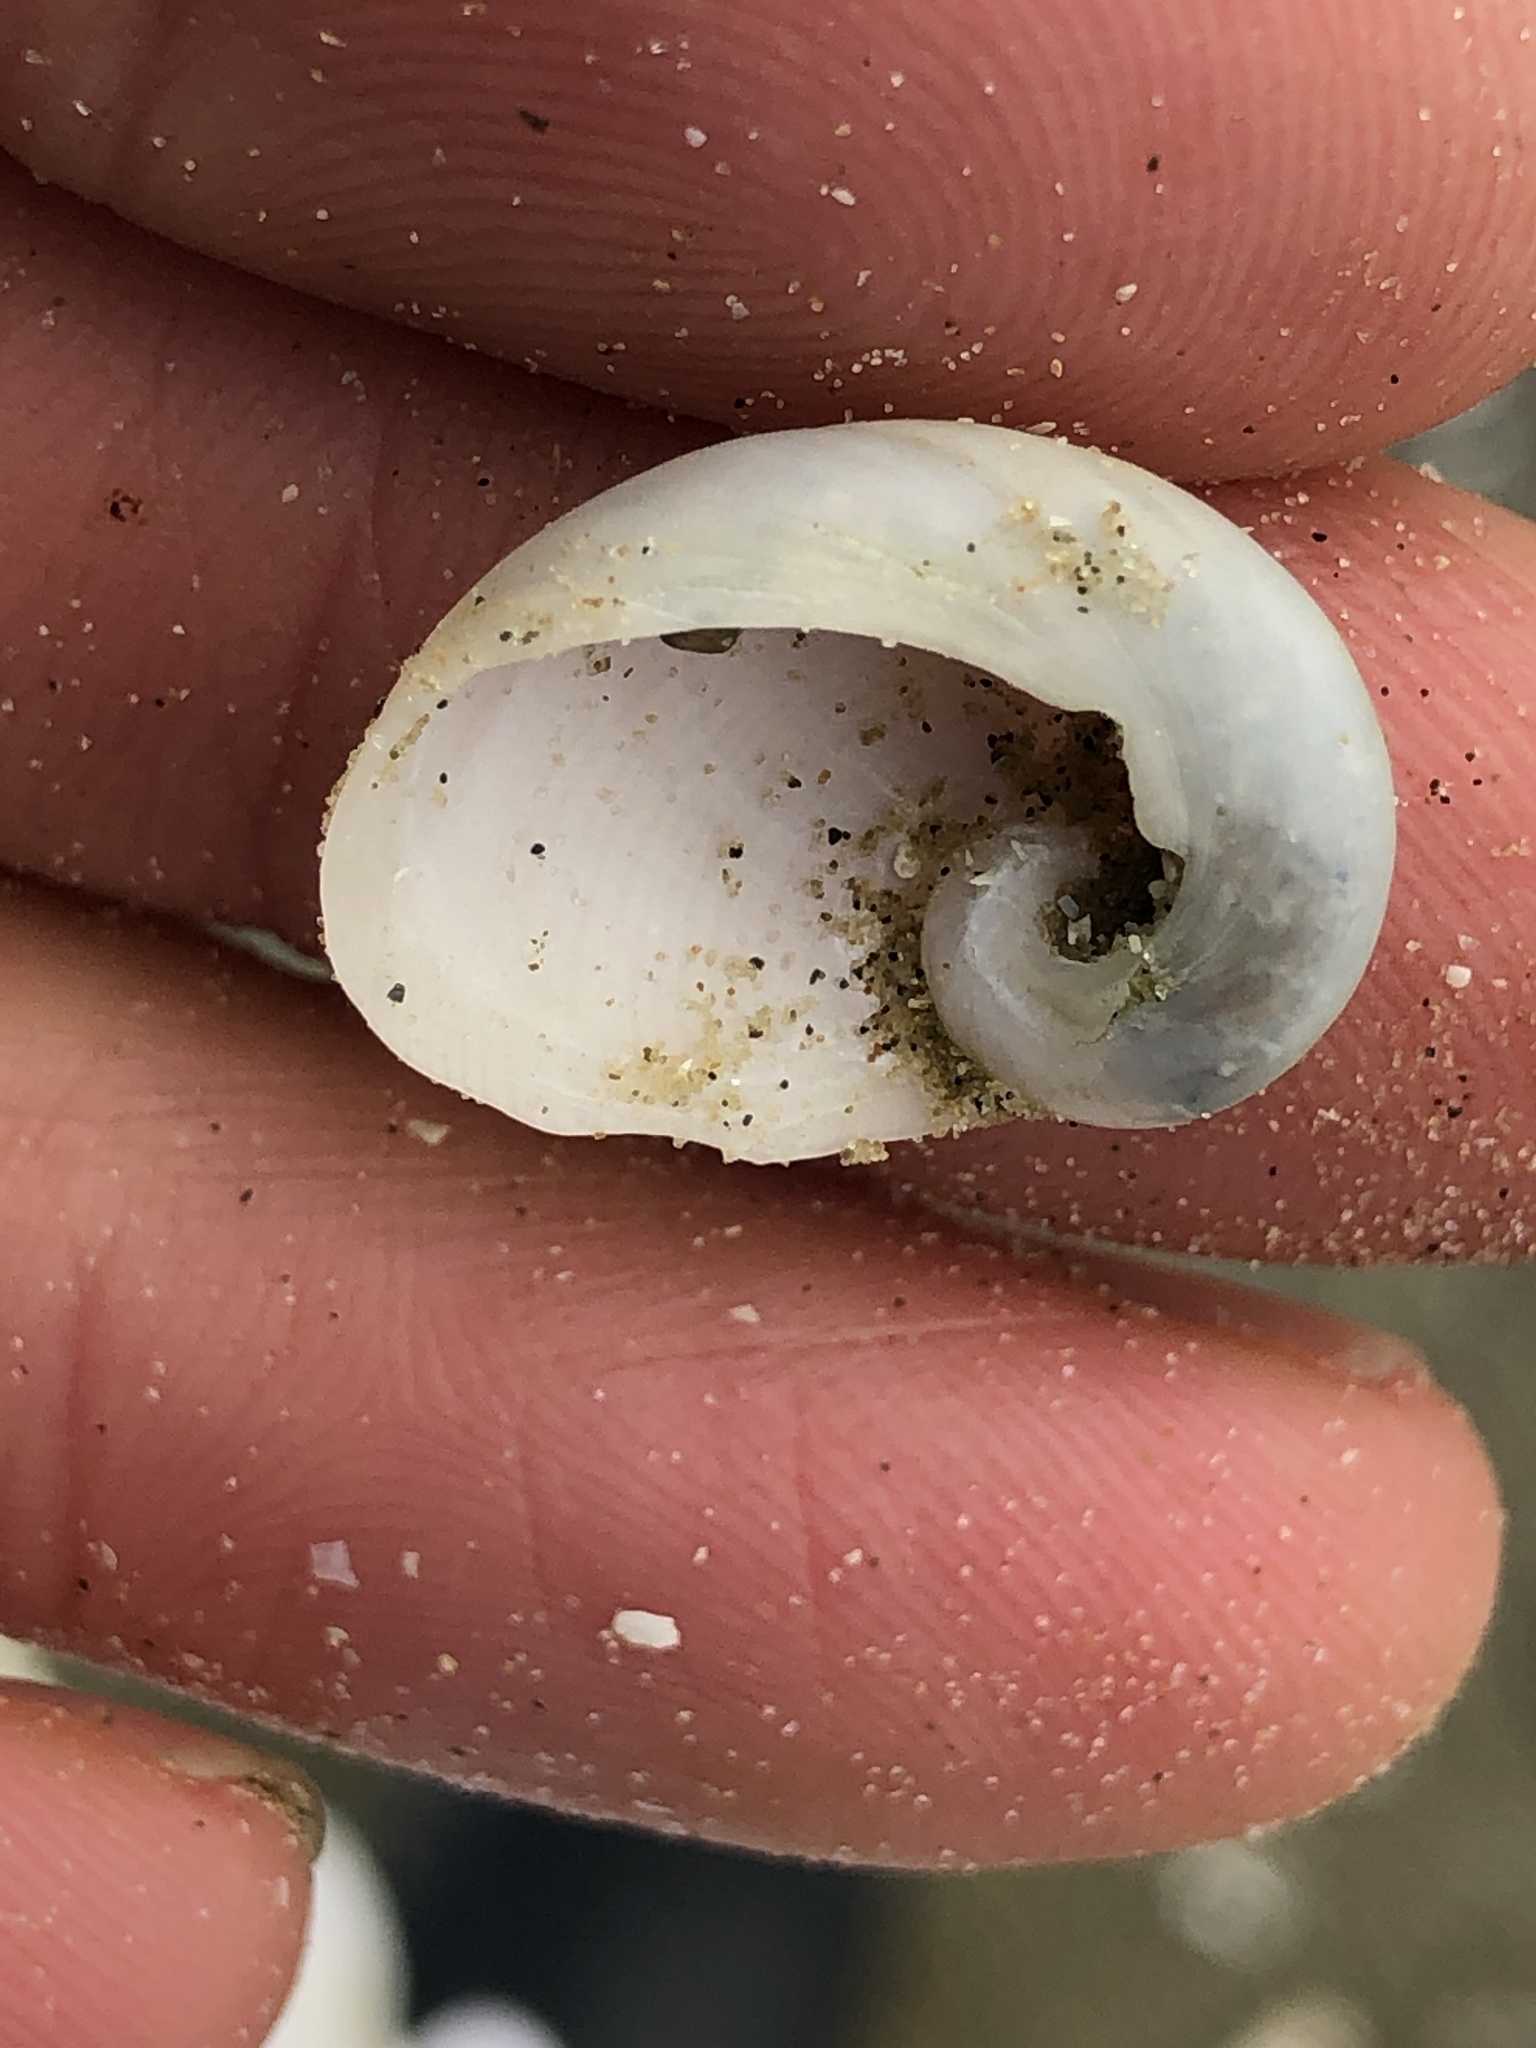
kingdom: Animalia
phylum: Mollusca
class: Gastropoda
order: Littorinimorpha
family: Naticidae
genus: Sinum
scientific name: Sinum perspectivum
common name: White baby ear
